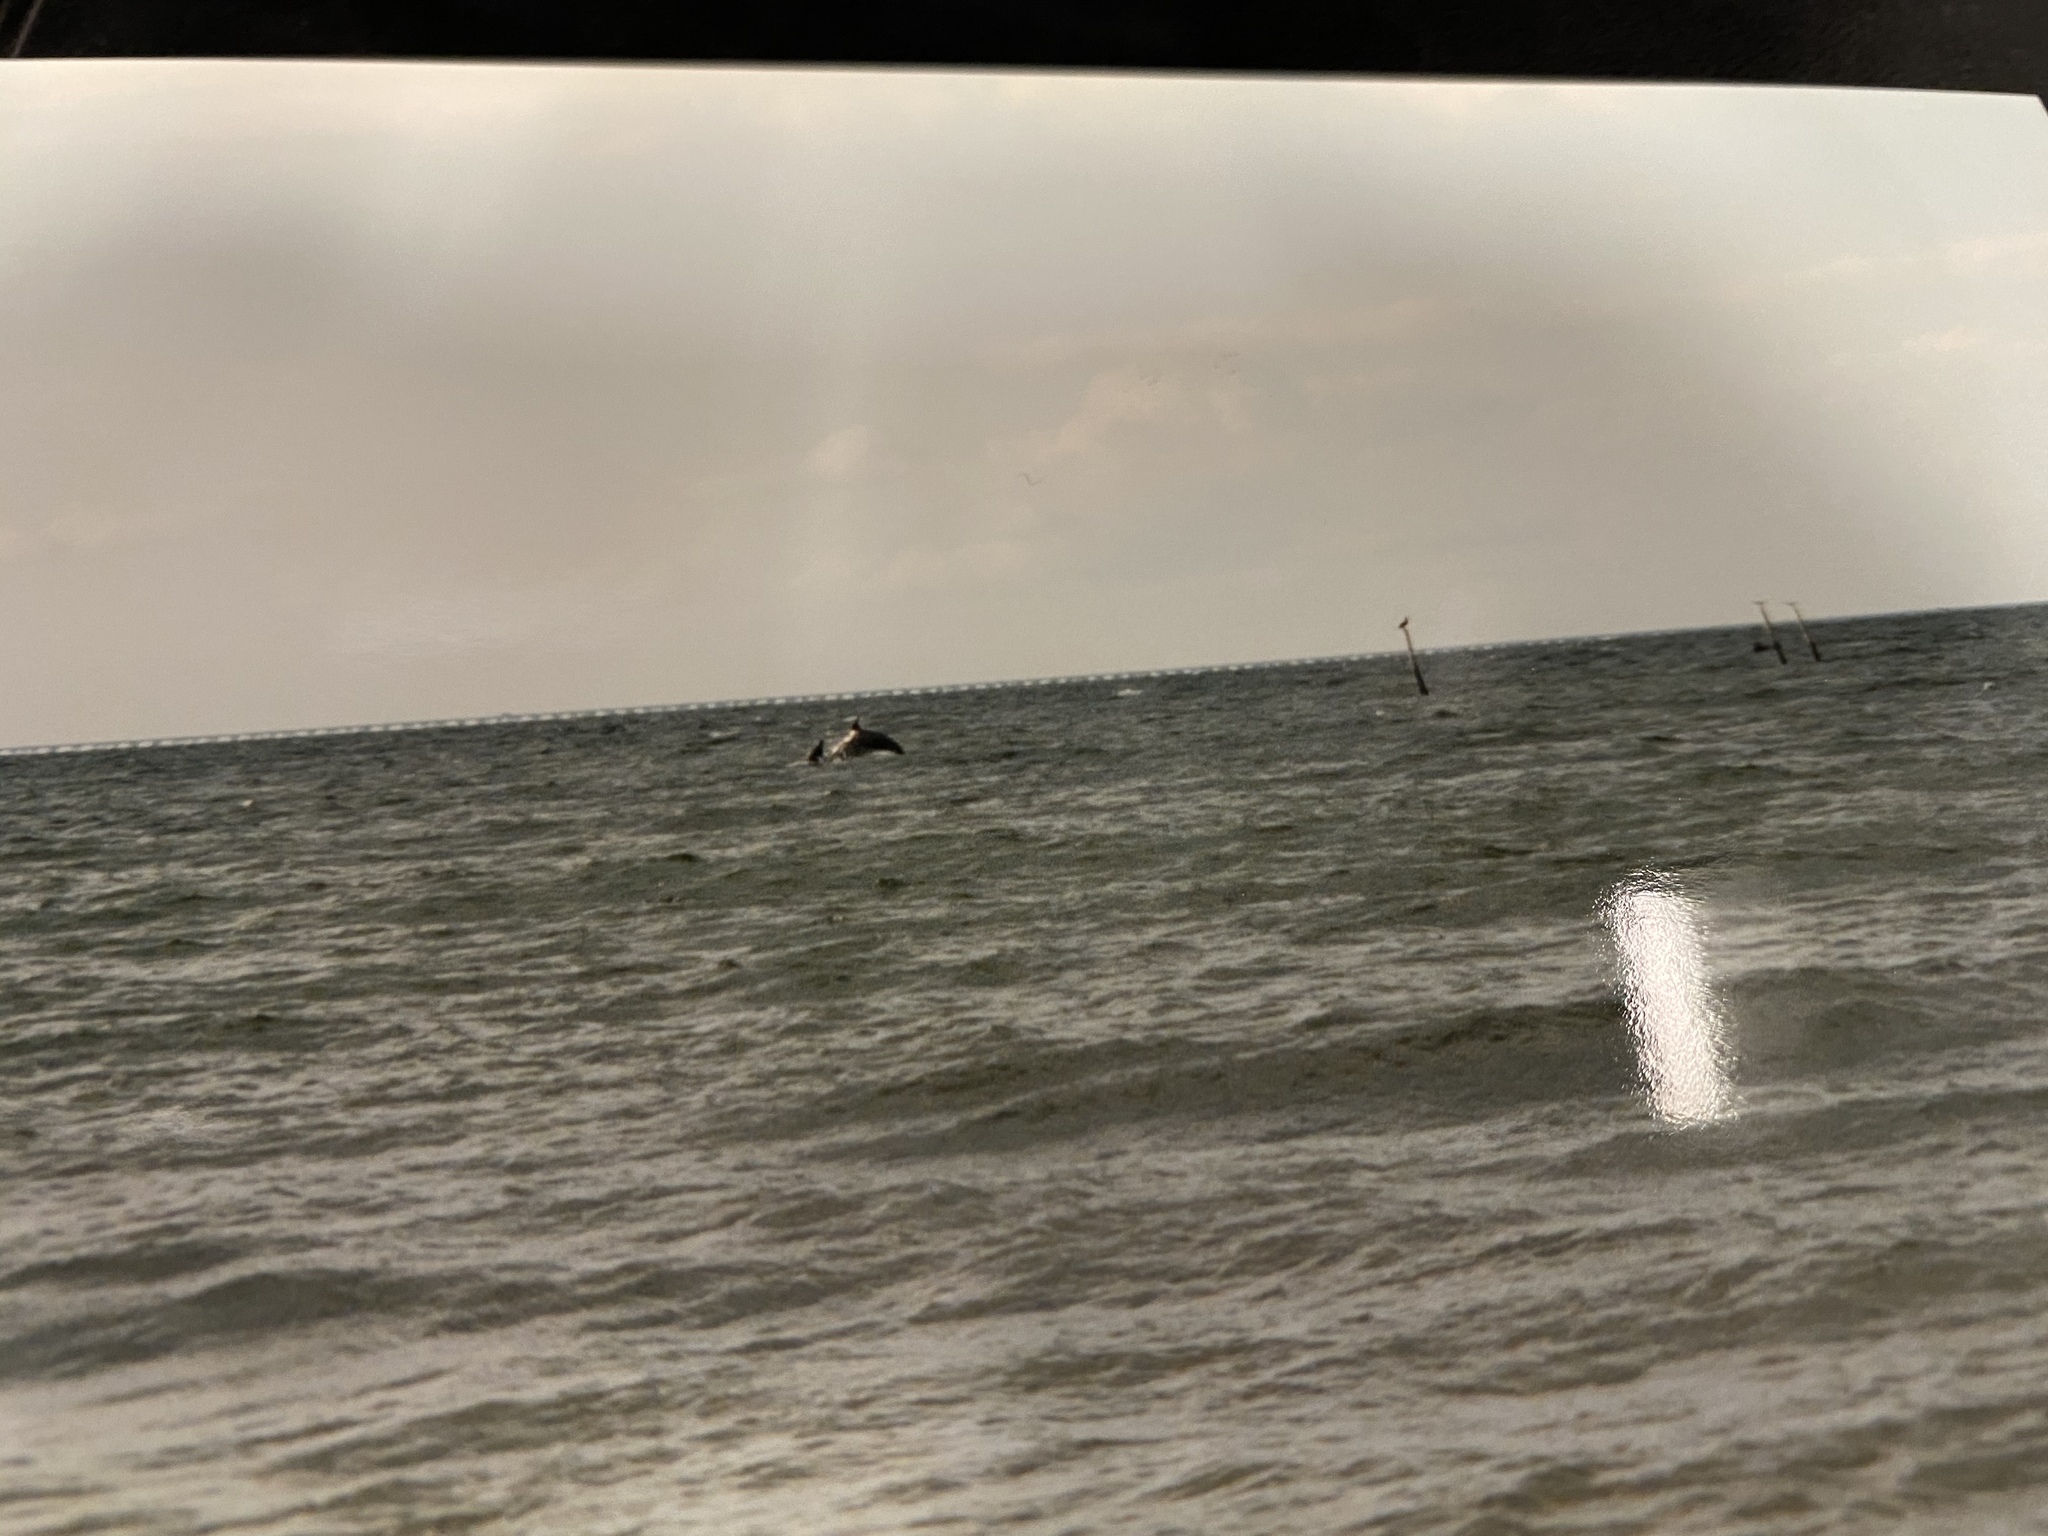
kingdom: Animalia
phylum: Chordata
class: Mammalia
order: Cetacea
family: Delphinidae
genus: Tursiops
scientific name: Tursiops truncatus
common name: Bottlenose dolphin
